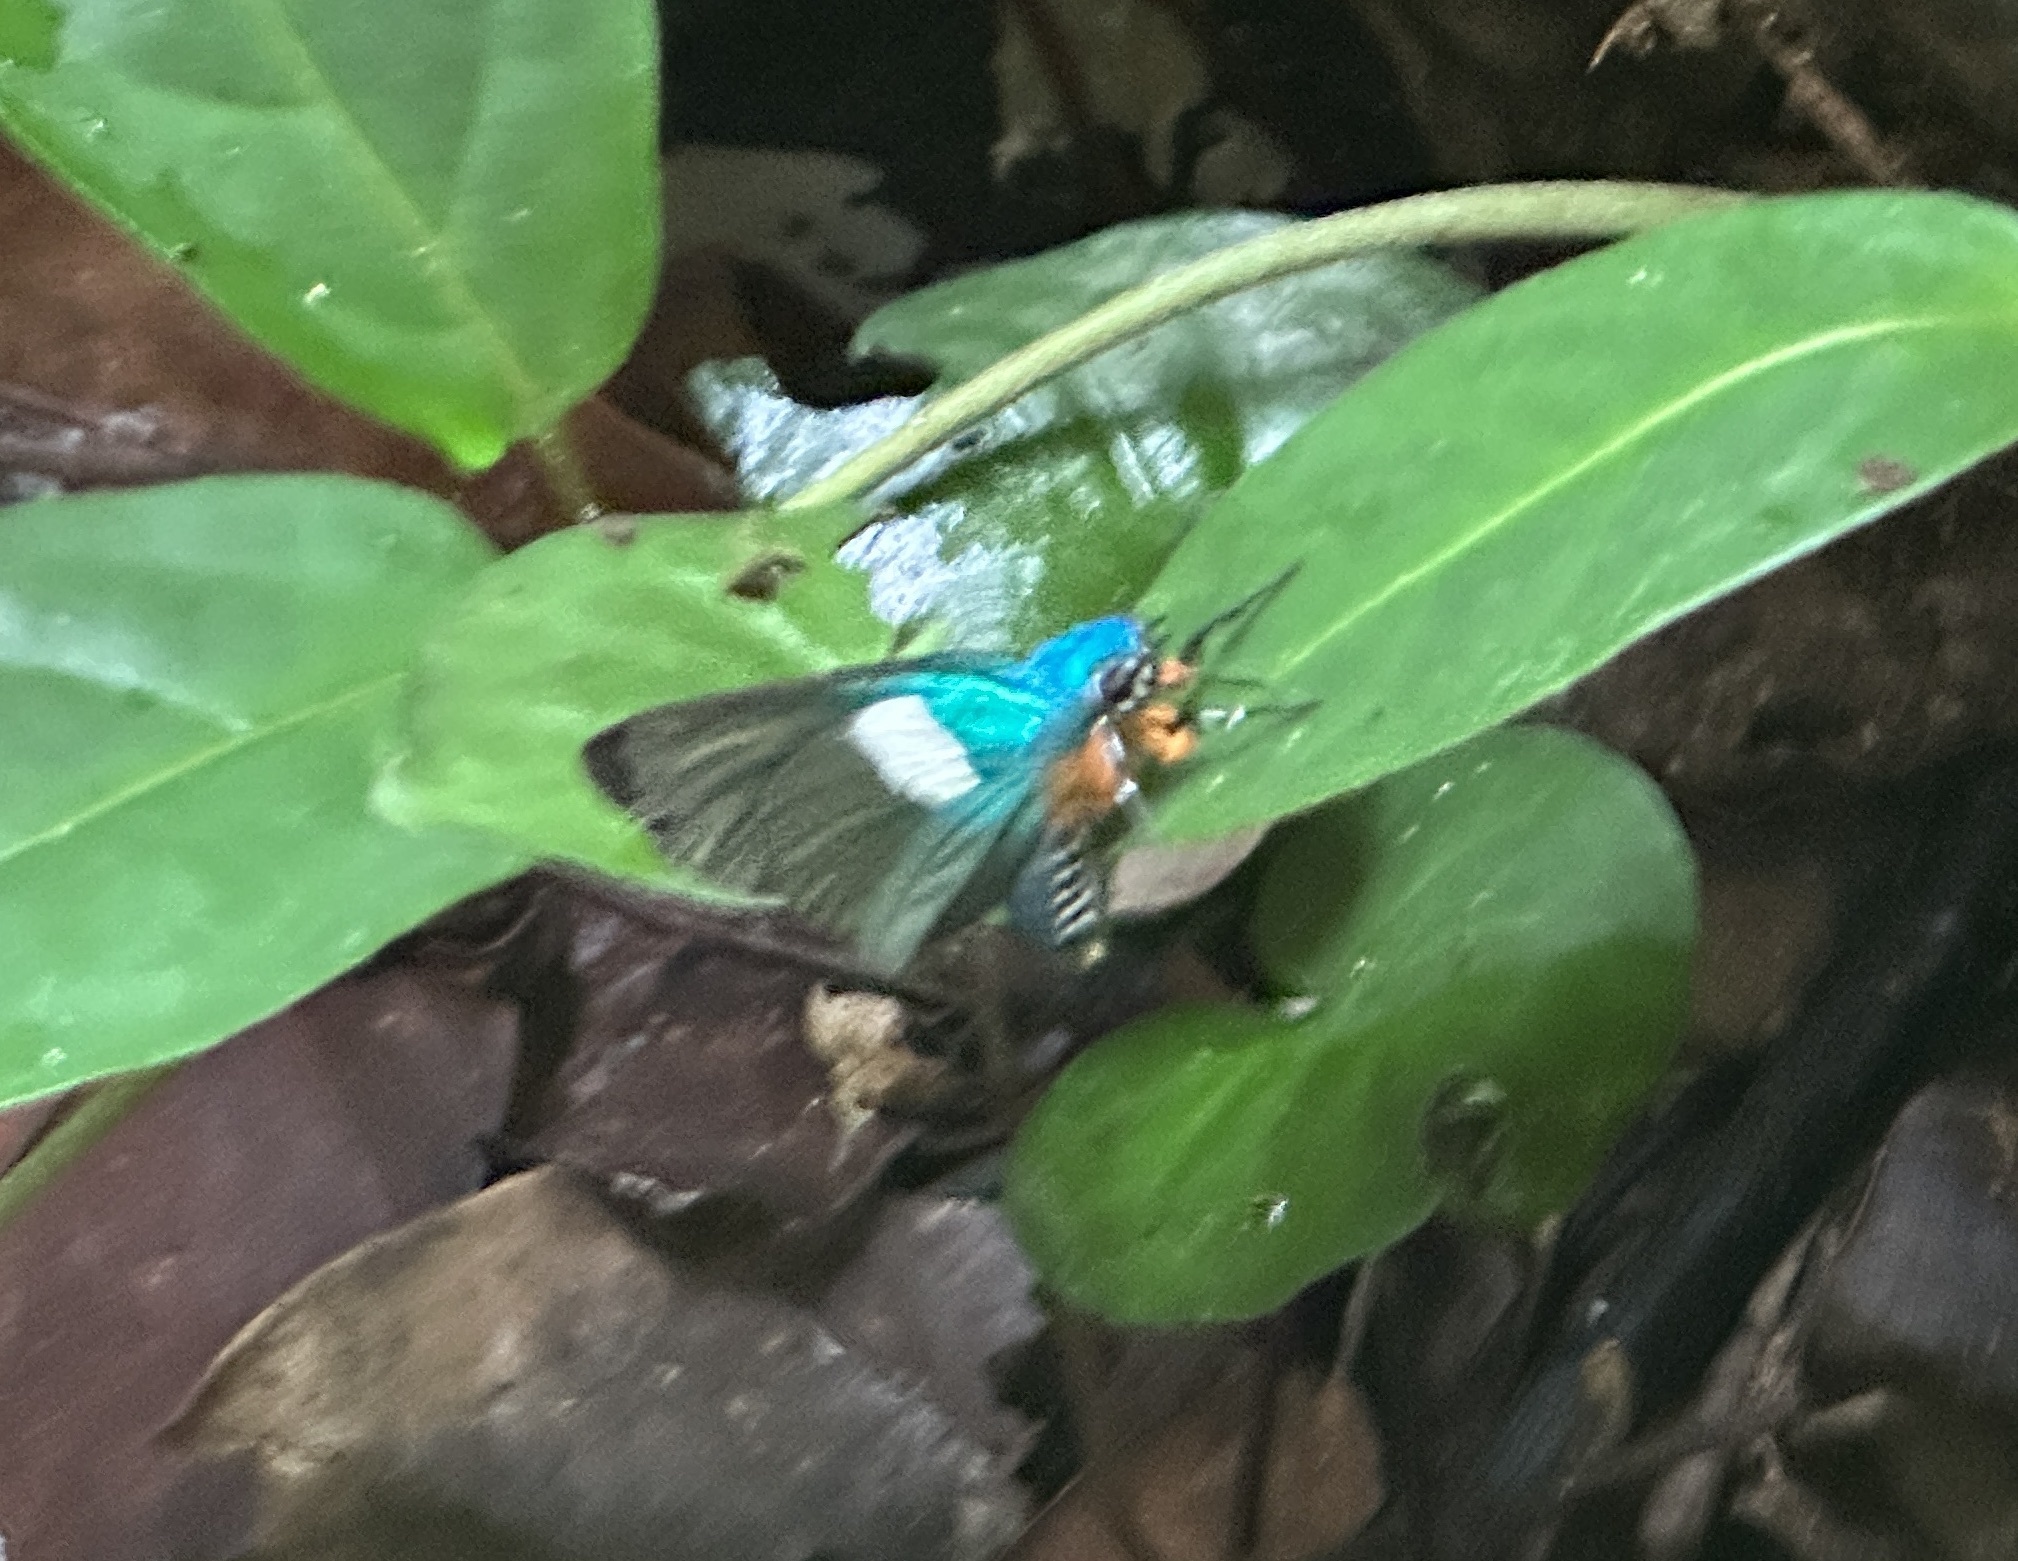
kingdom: Animalia
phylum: Arthropoda
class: Insecta
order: Lepidoptera
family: Hesperiidae
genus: Coeliades
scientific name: Coeliades chalybe
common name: Blue policeman
